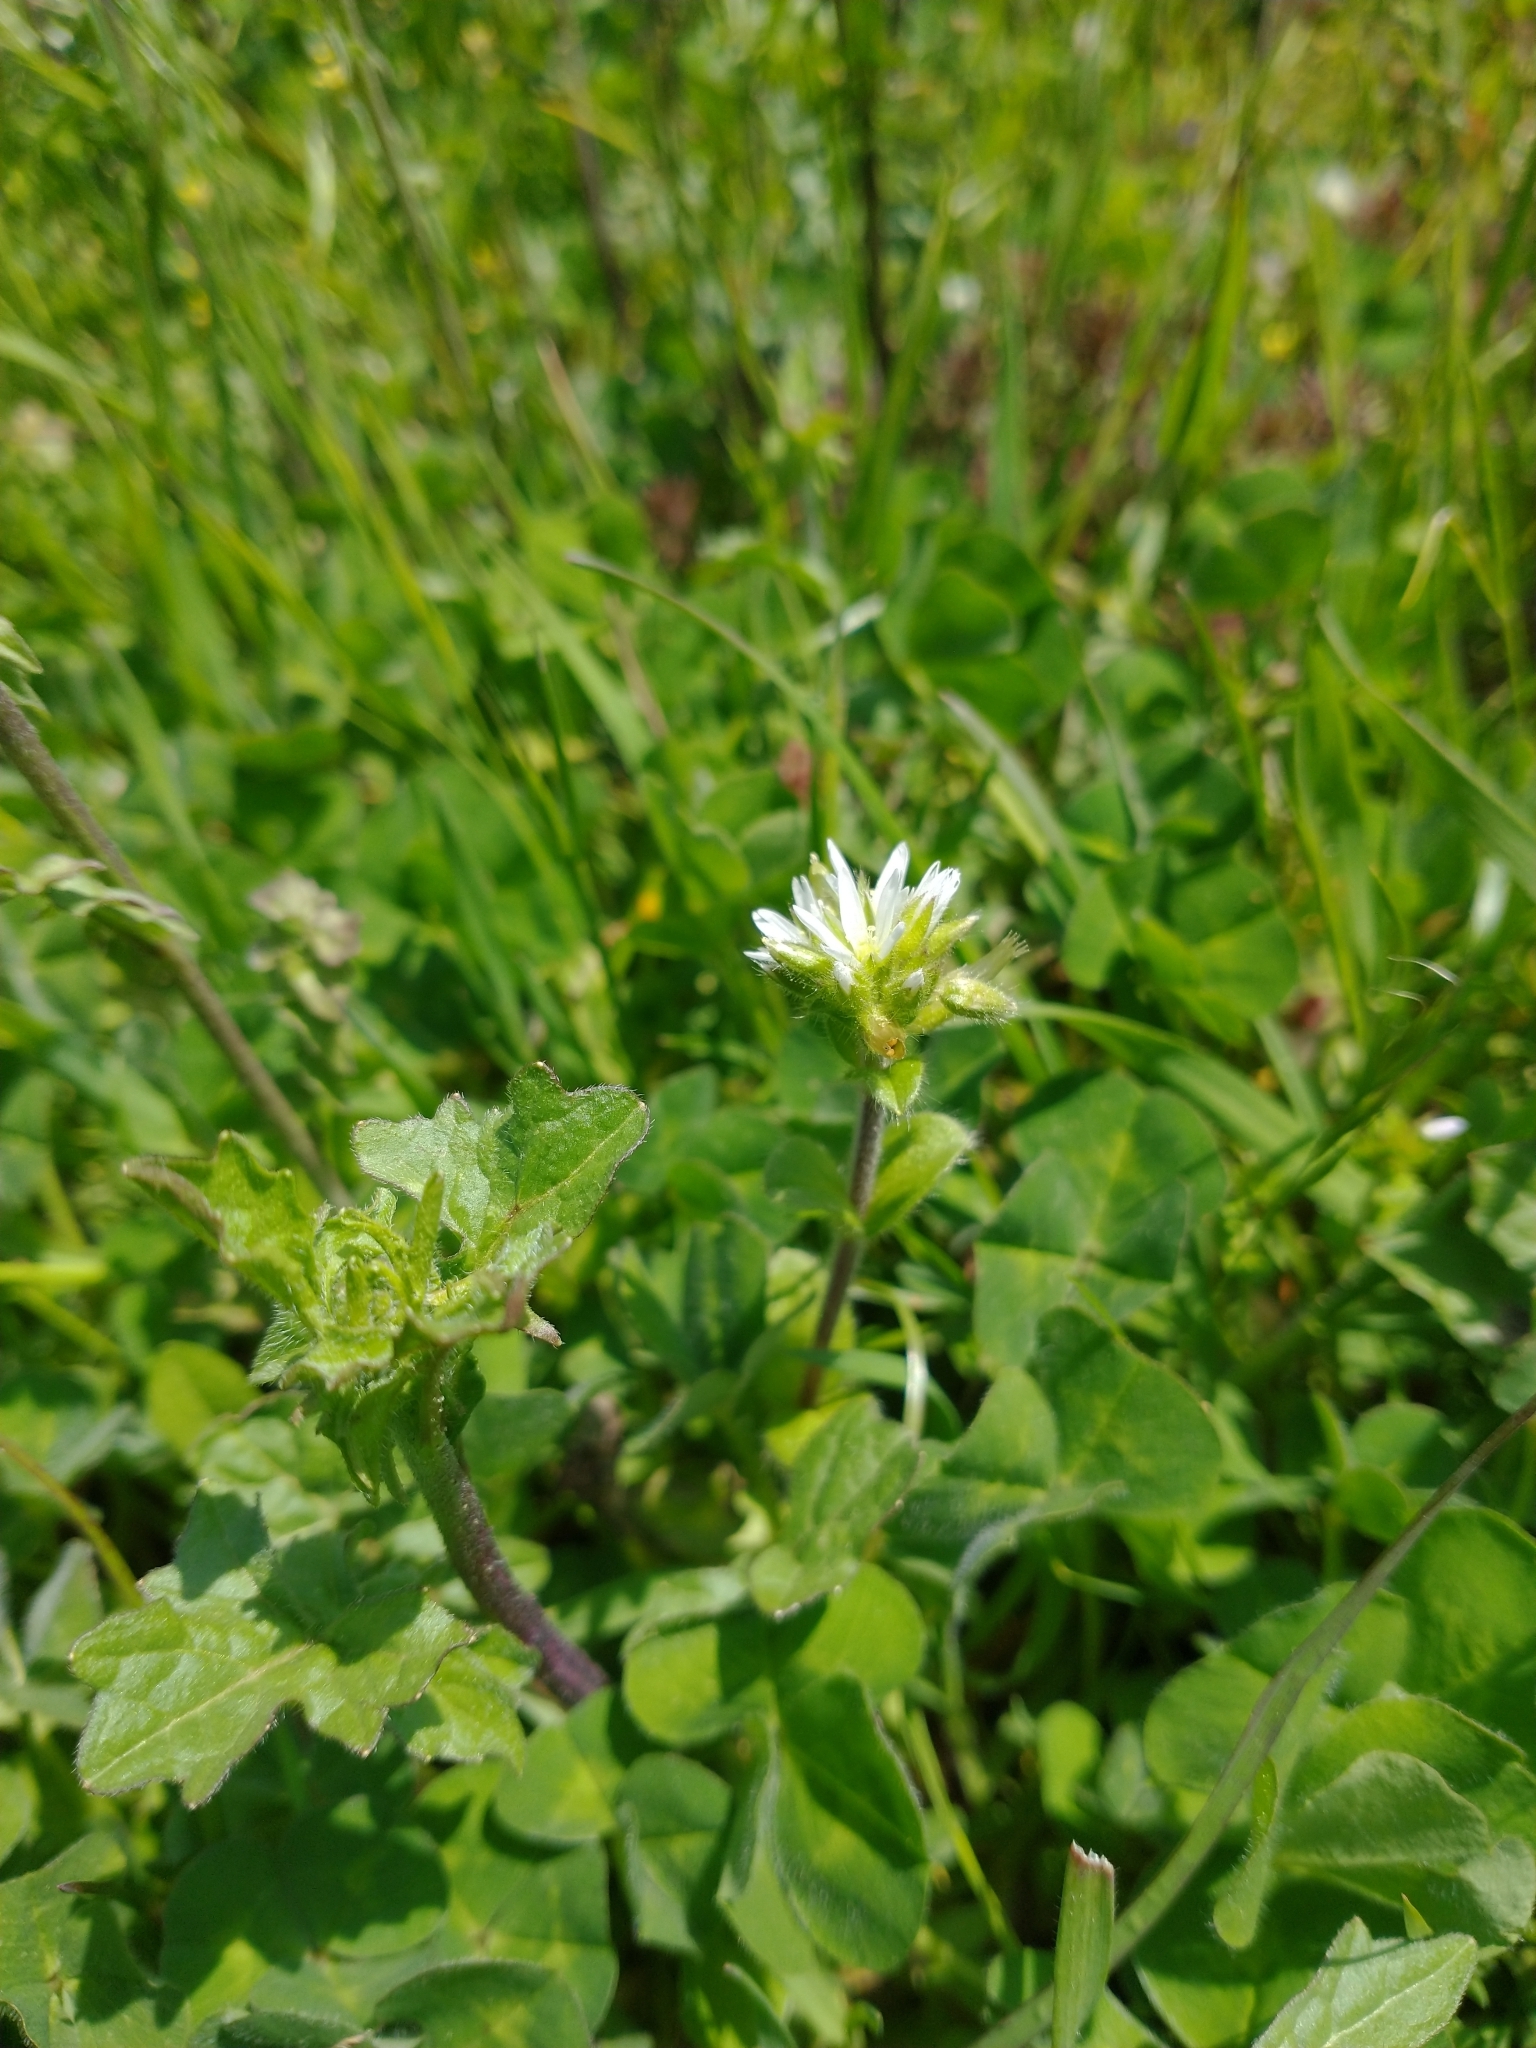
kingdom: Plantae
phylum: Tracheophyta
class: Magnoliopsida
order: Caryophyllales
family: Caryophyllaceae
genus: Cerastium
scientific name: Cerastium glomeratum
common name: Sticky chickweed
